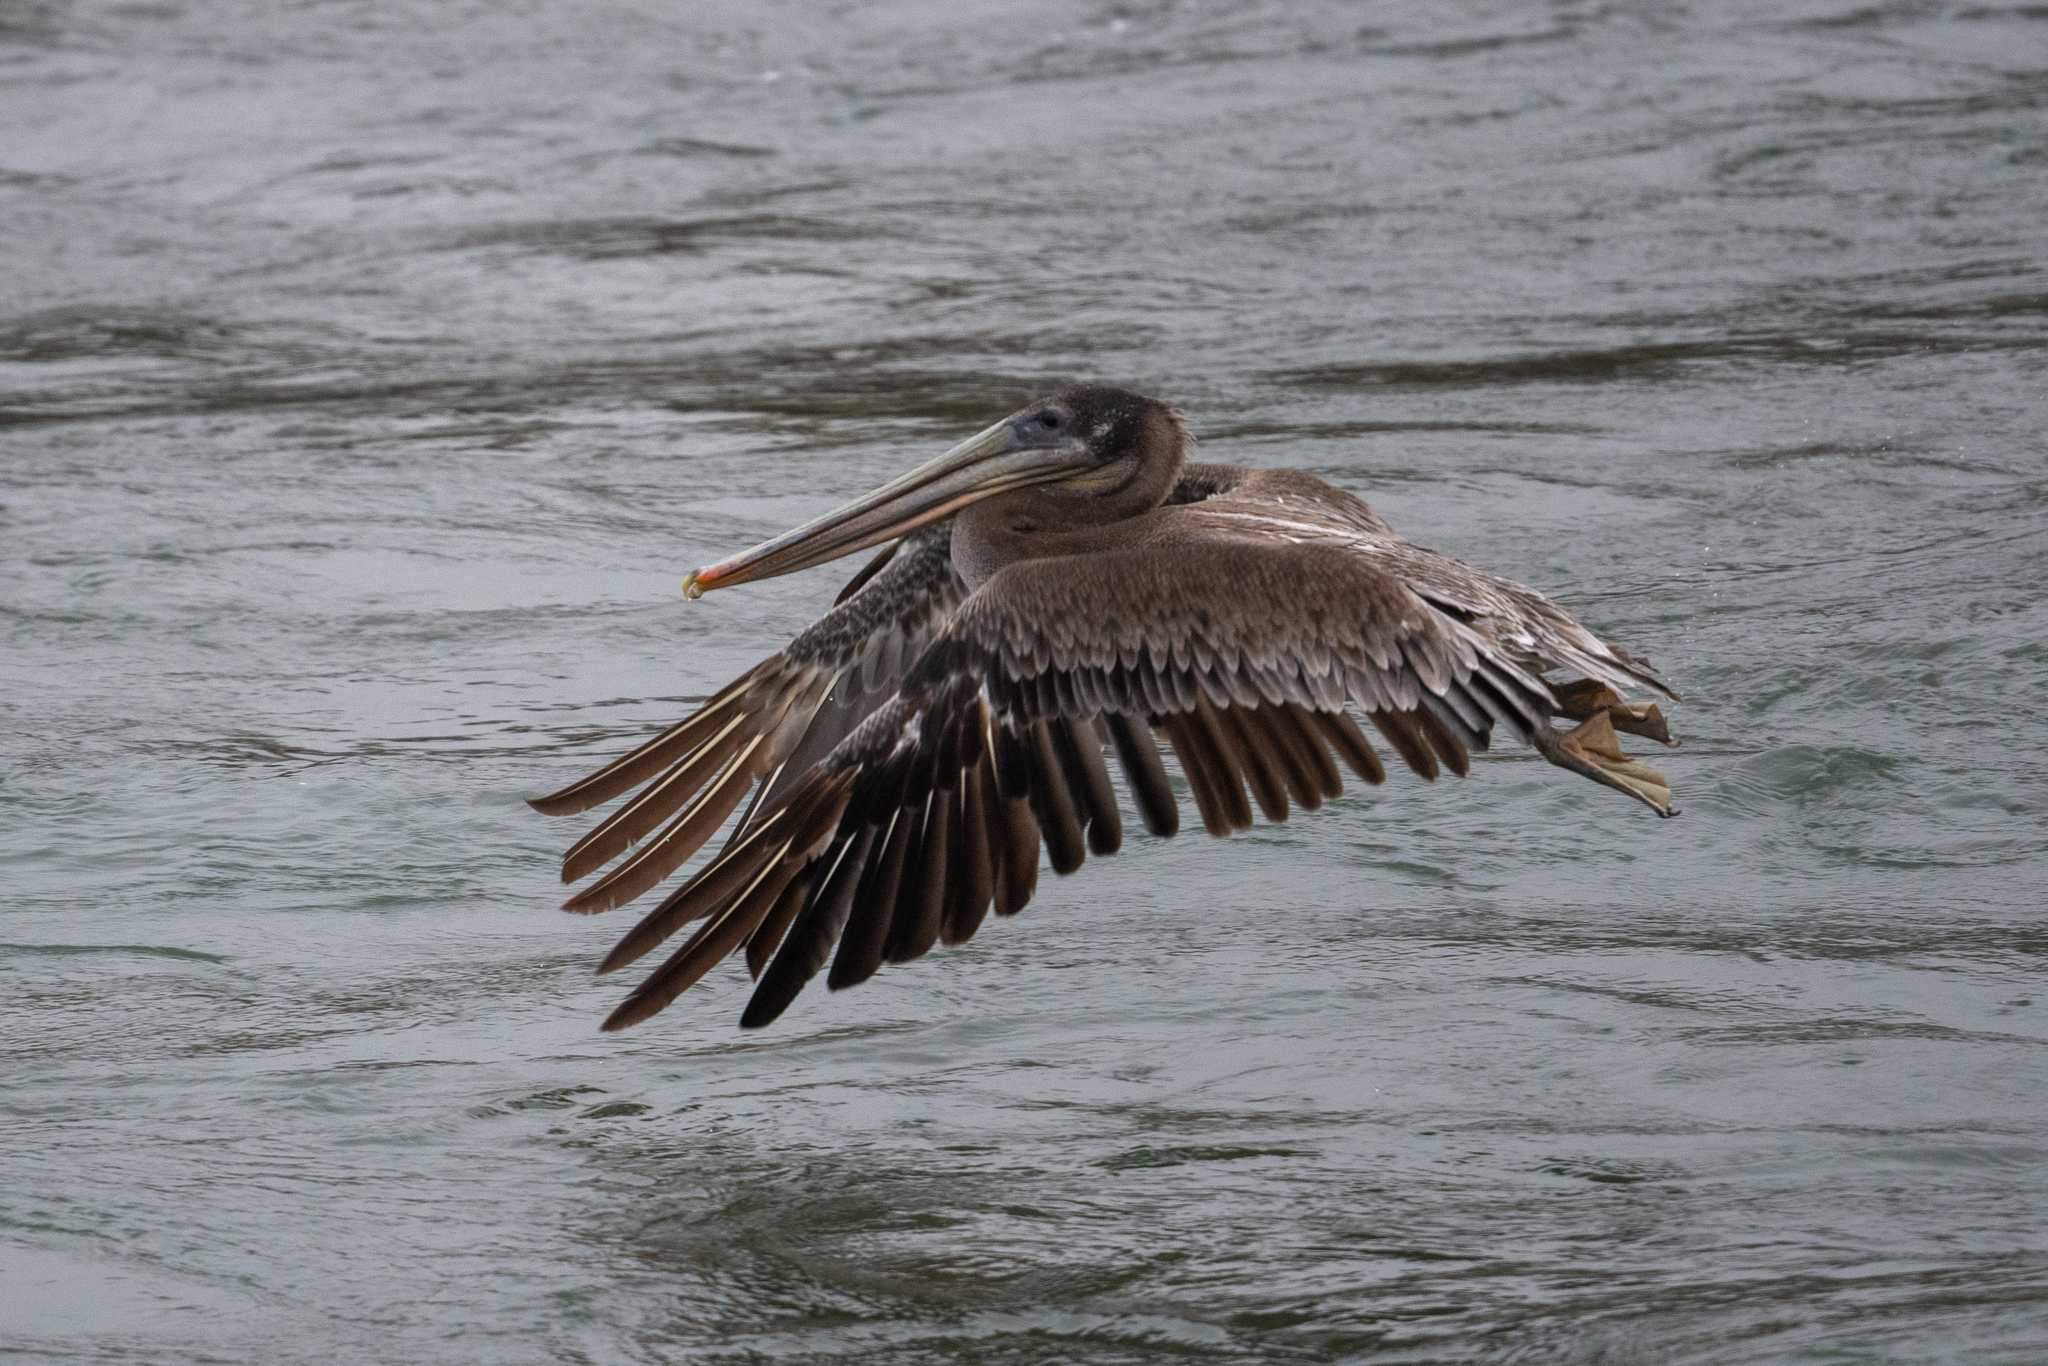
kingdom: Animalia
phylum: Chordata
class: Aves
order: Pelecaniformes
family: Pelecanidae
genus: Pelecanus
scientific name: Pelecanus occidentalis
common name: Brown pelican
